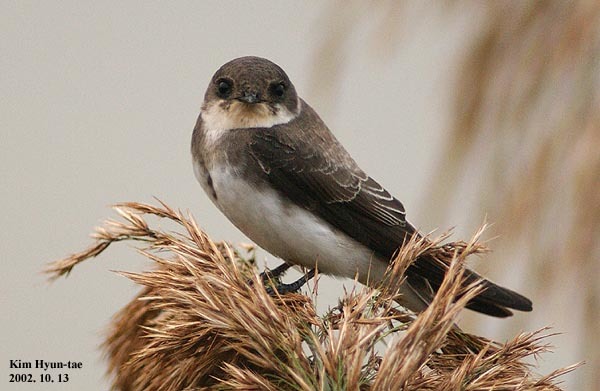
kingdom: Animalia
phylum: Chordata
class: Aves
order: Passeriformes
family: Hirundinidae
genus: Riparia
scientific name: Riparia riparia
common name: Sand martin
